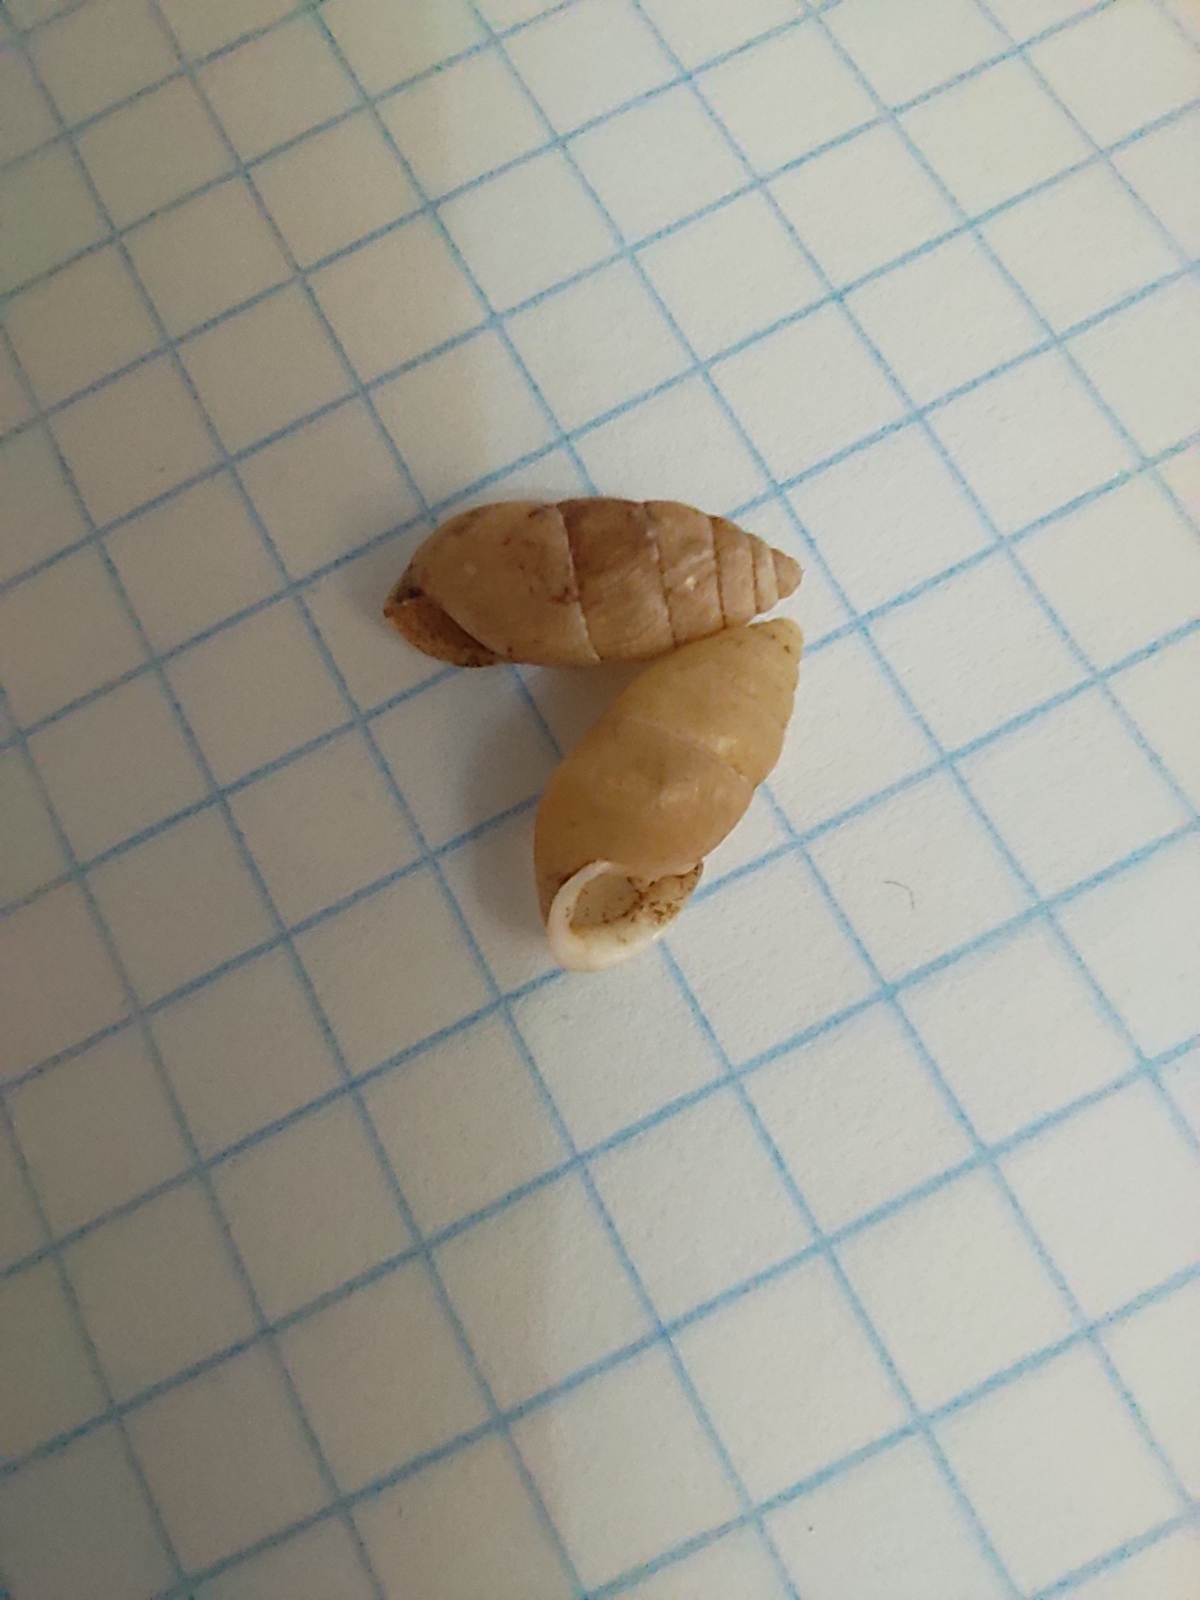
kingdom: Animalia
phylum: Mollusca
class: Gastropoda
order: Stylommatophora
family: Enidae
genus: Chondrula
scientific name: Chondrula tridens
